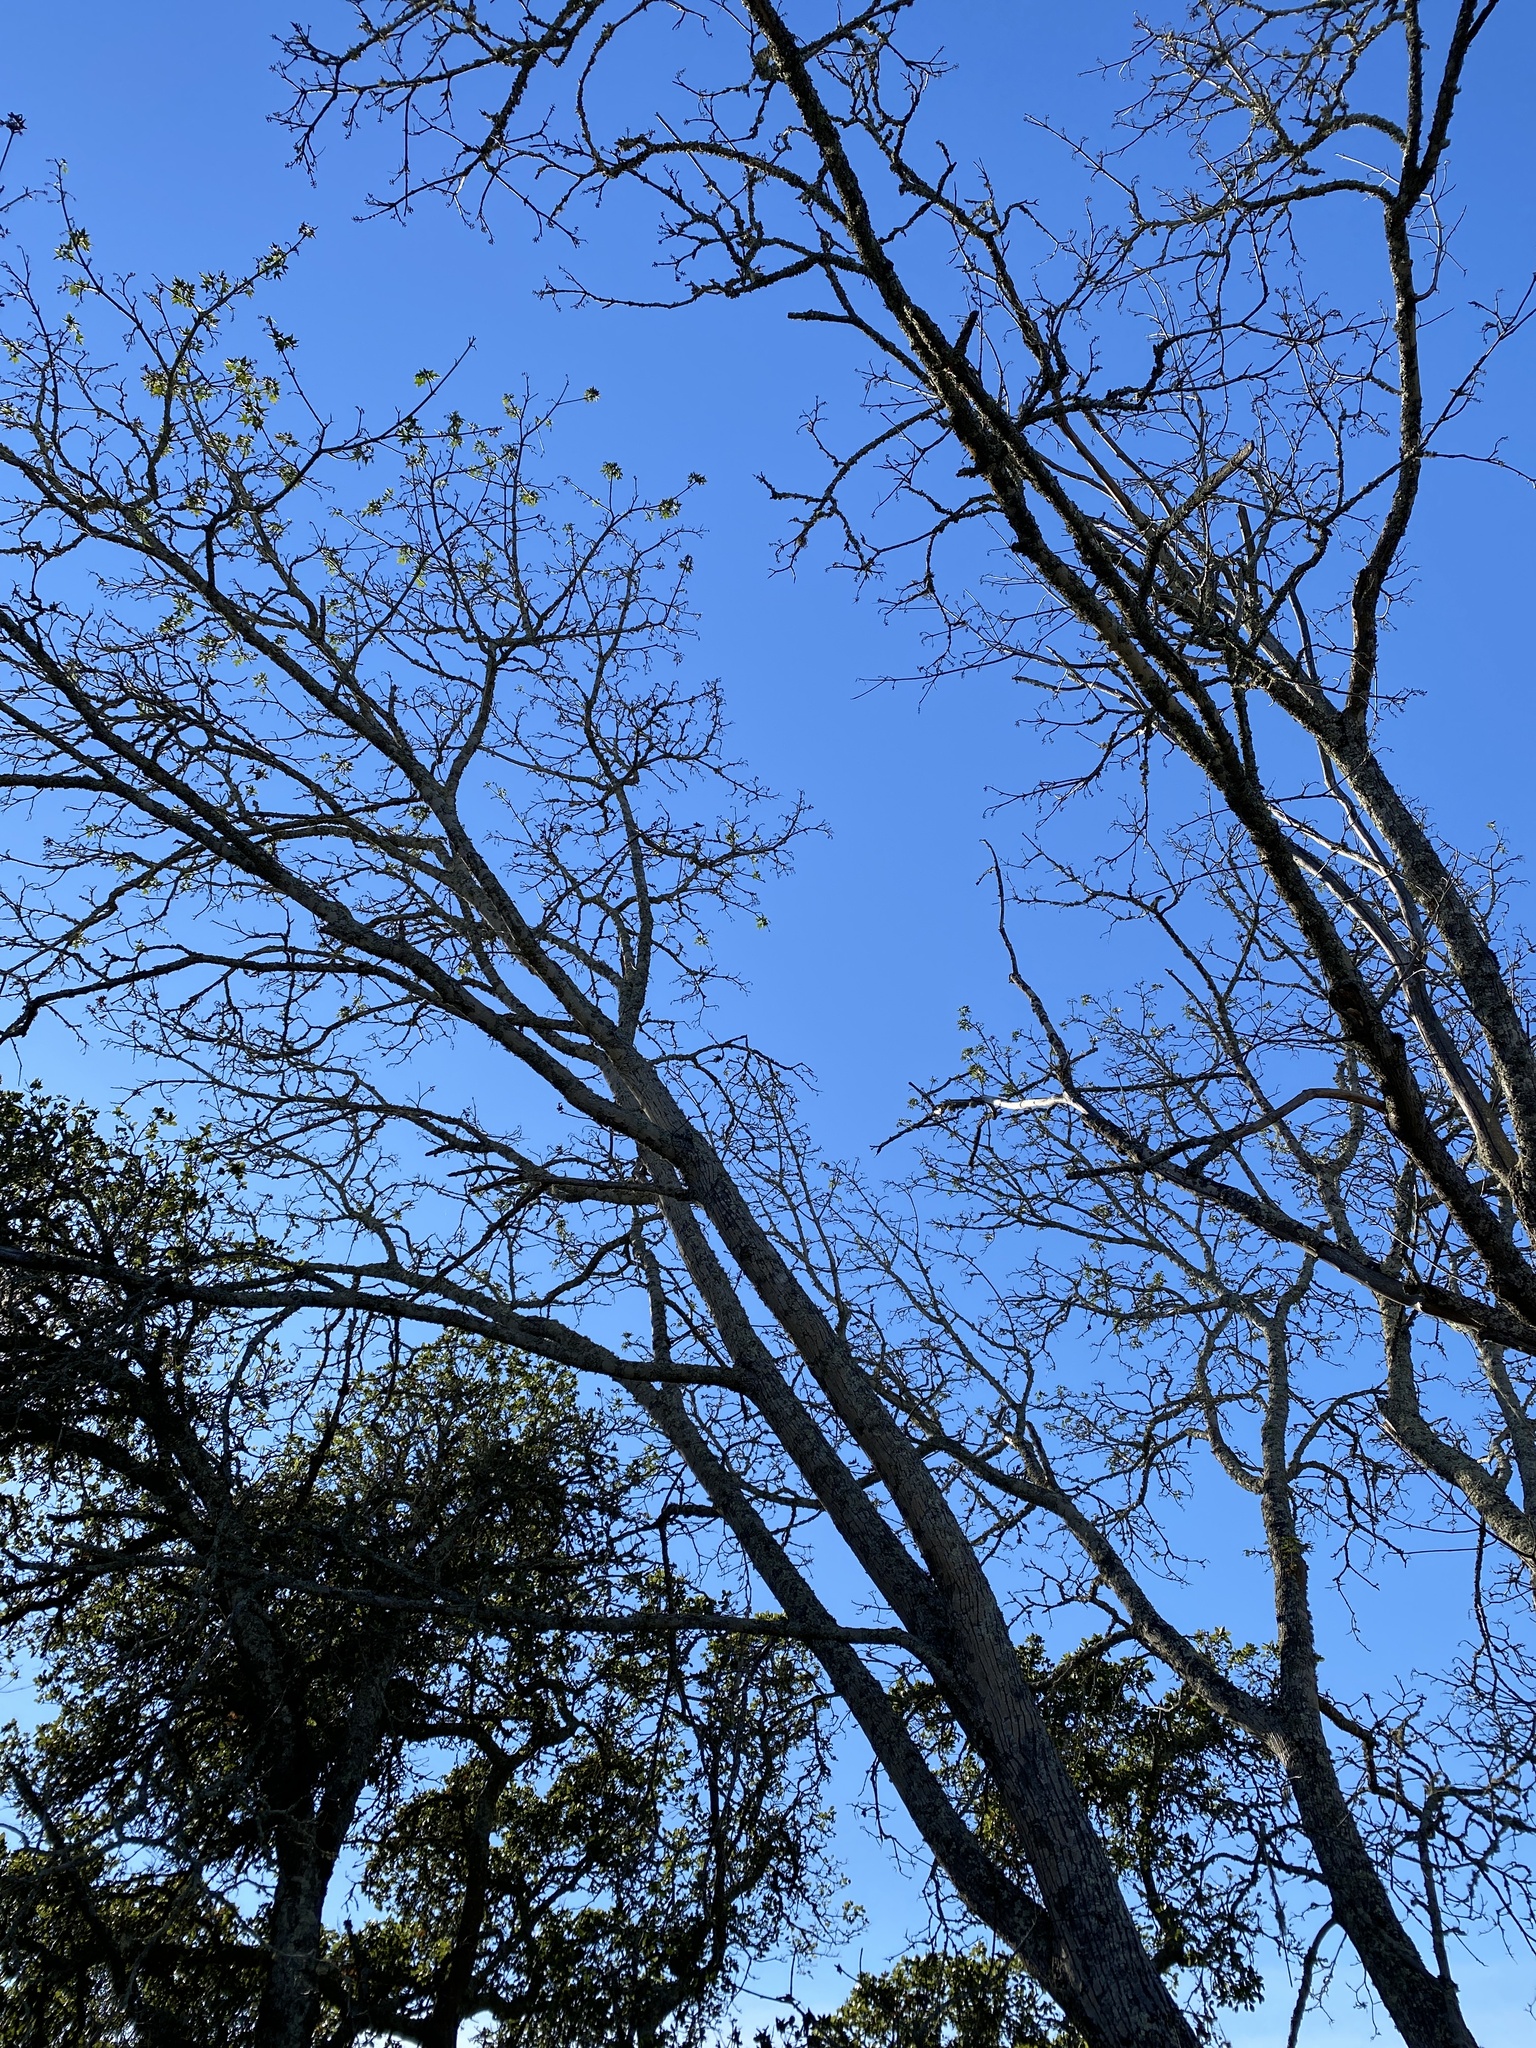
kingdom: Plantae
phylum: Tracheophyta
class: Magnoliopsida
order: Sapindales
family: Sapindaceae
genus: Acer
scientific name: Acer macrophyllum
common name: Oregon maple
